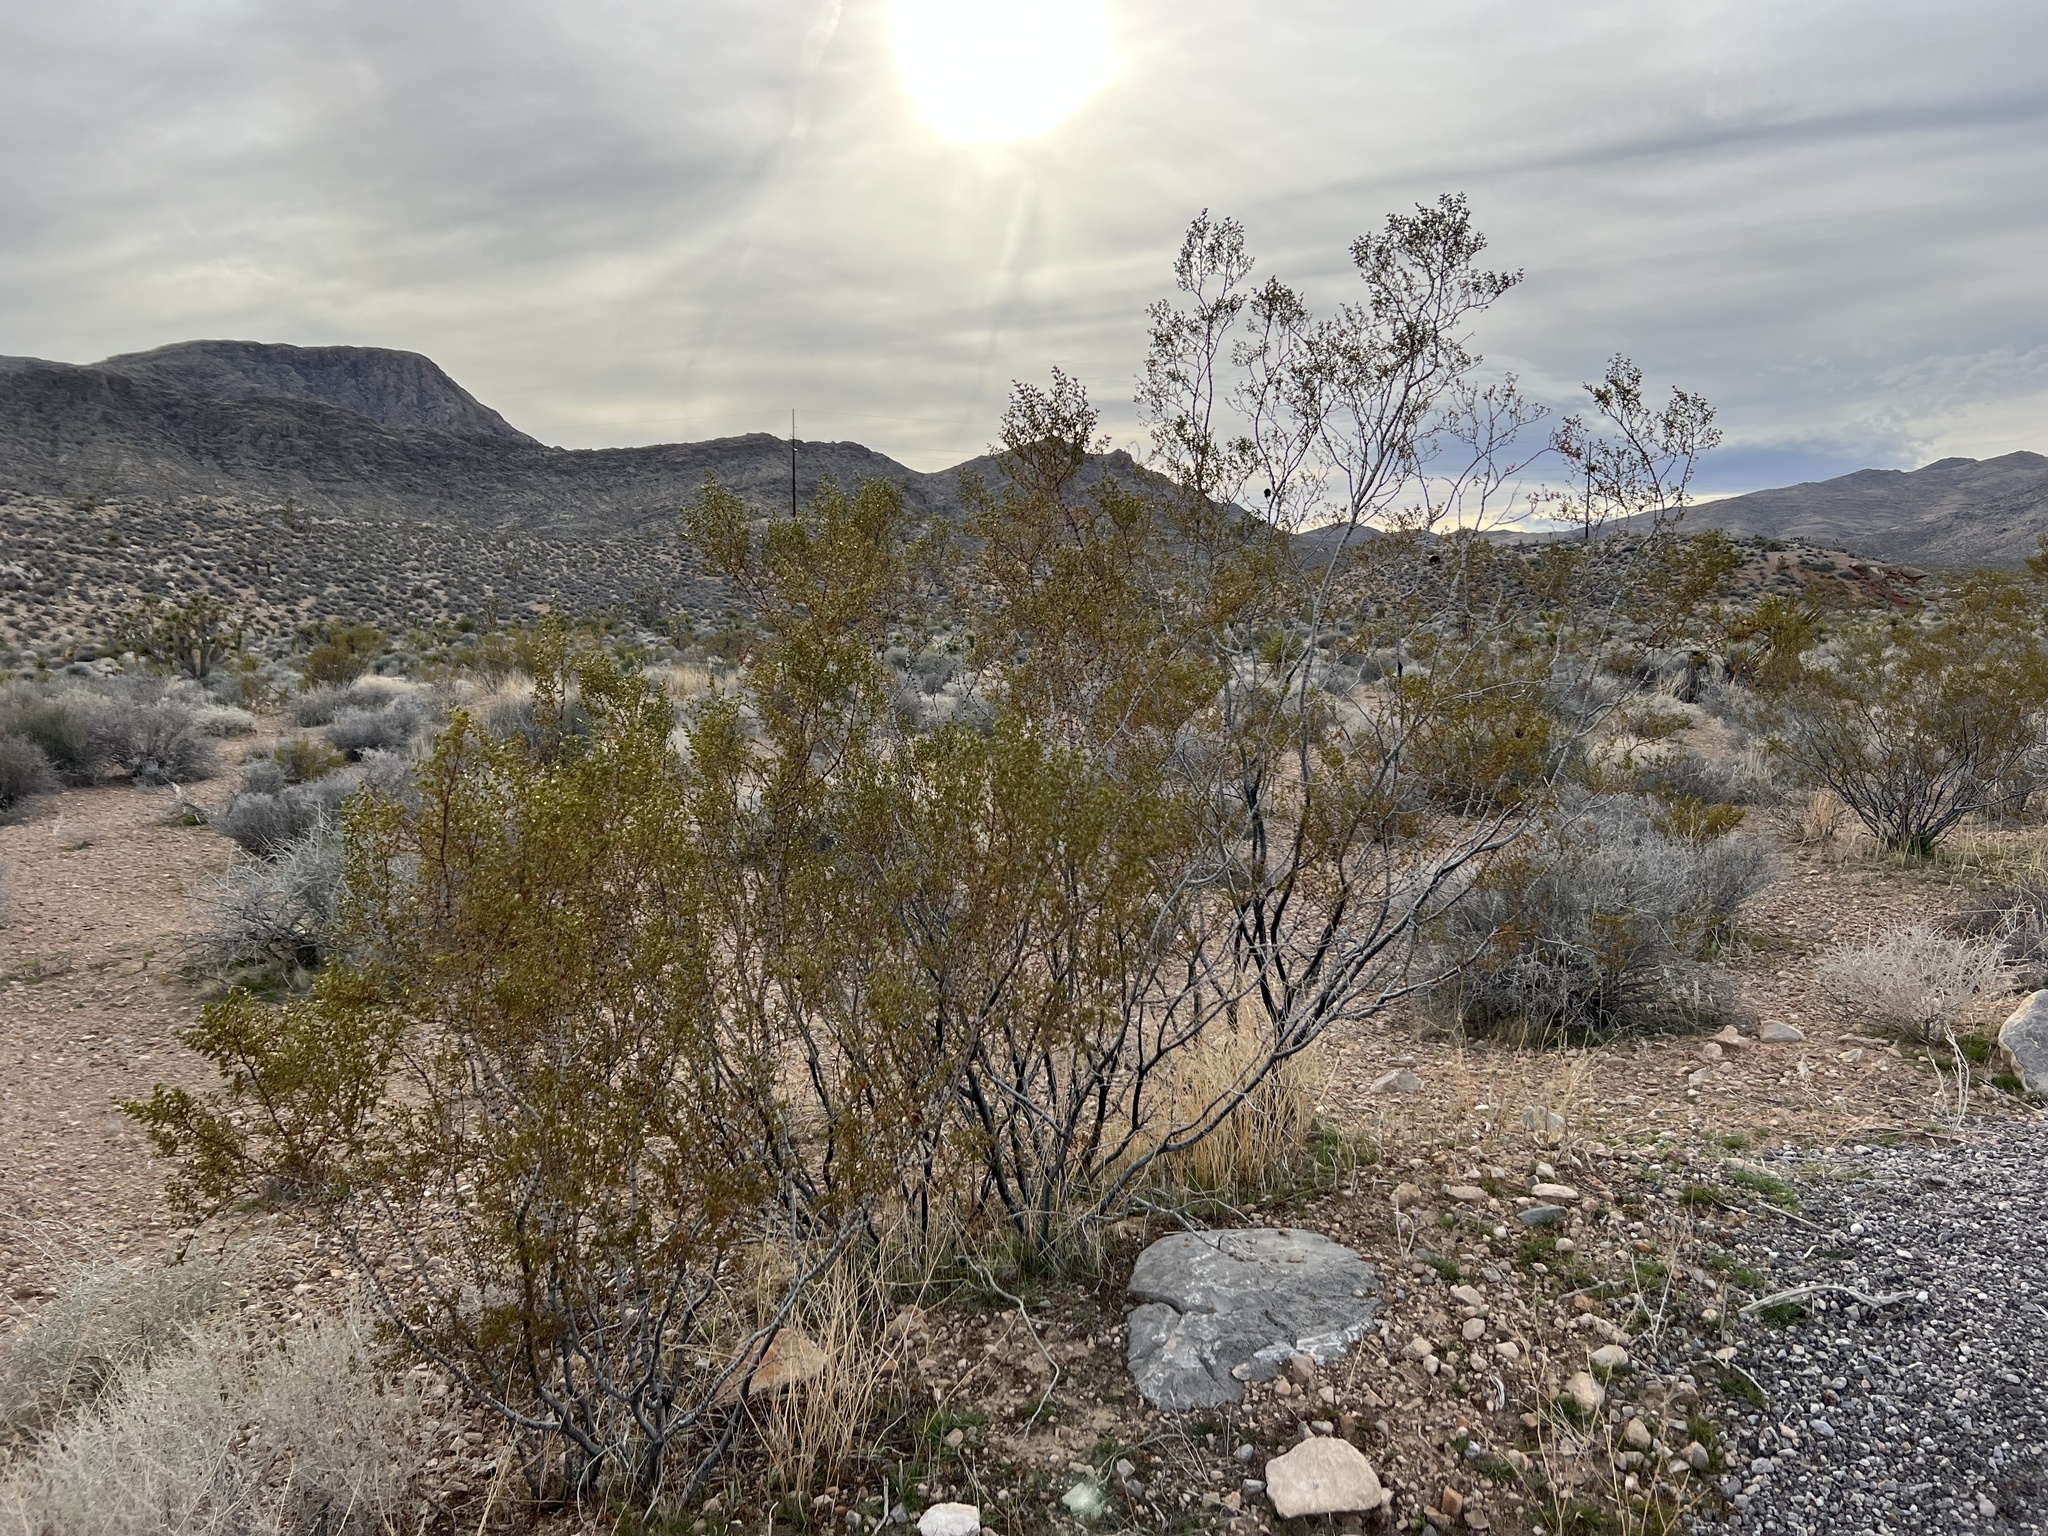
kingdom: Plantae
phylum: Tracheophyta
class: Magnoliopsida
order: Zygophyllales
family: Zygophyllaceae
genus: Larrea
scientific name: Larrea tridentata
